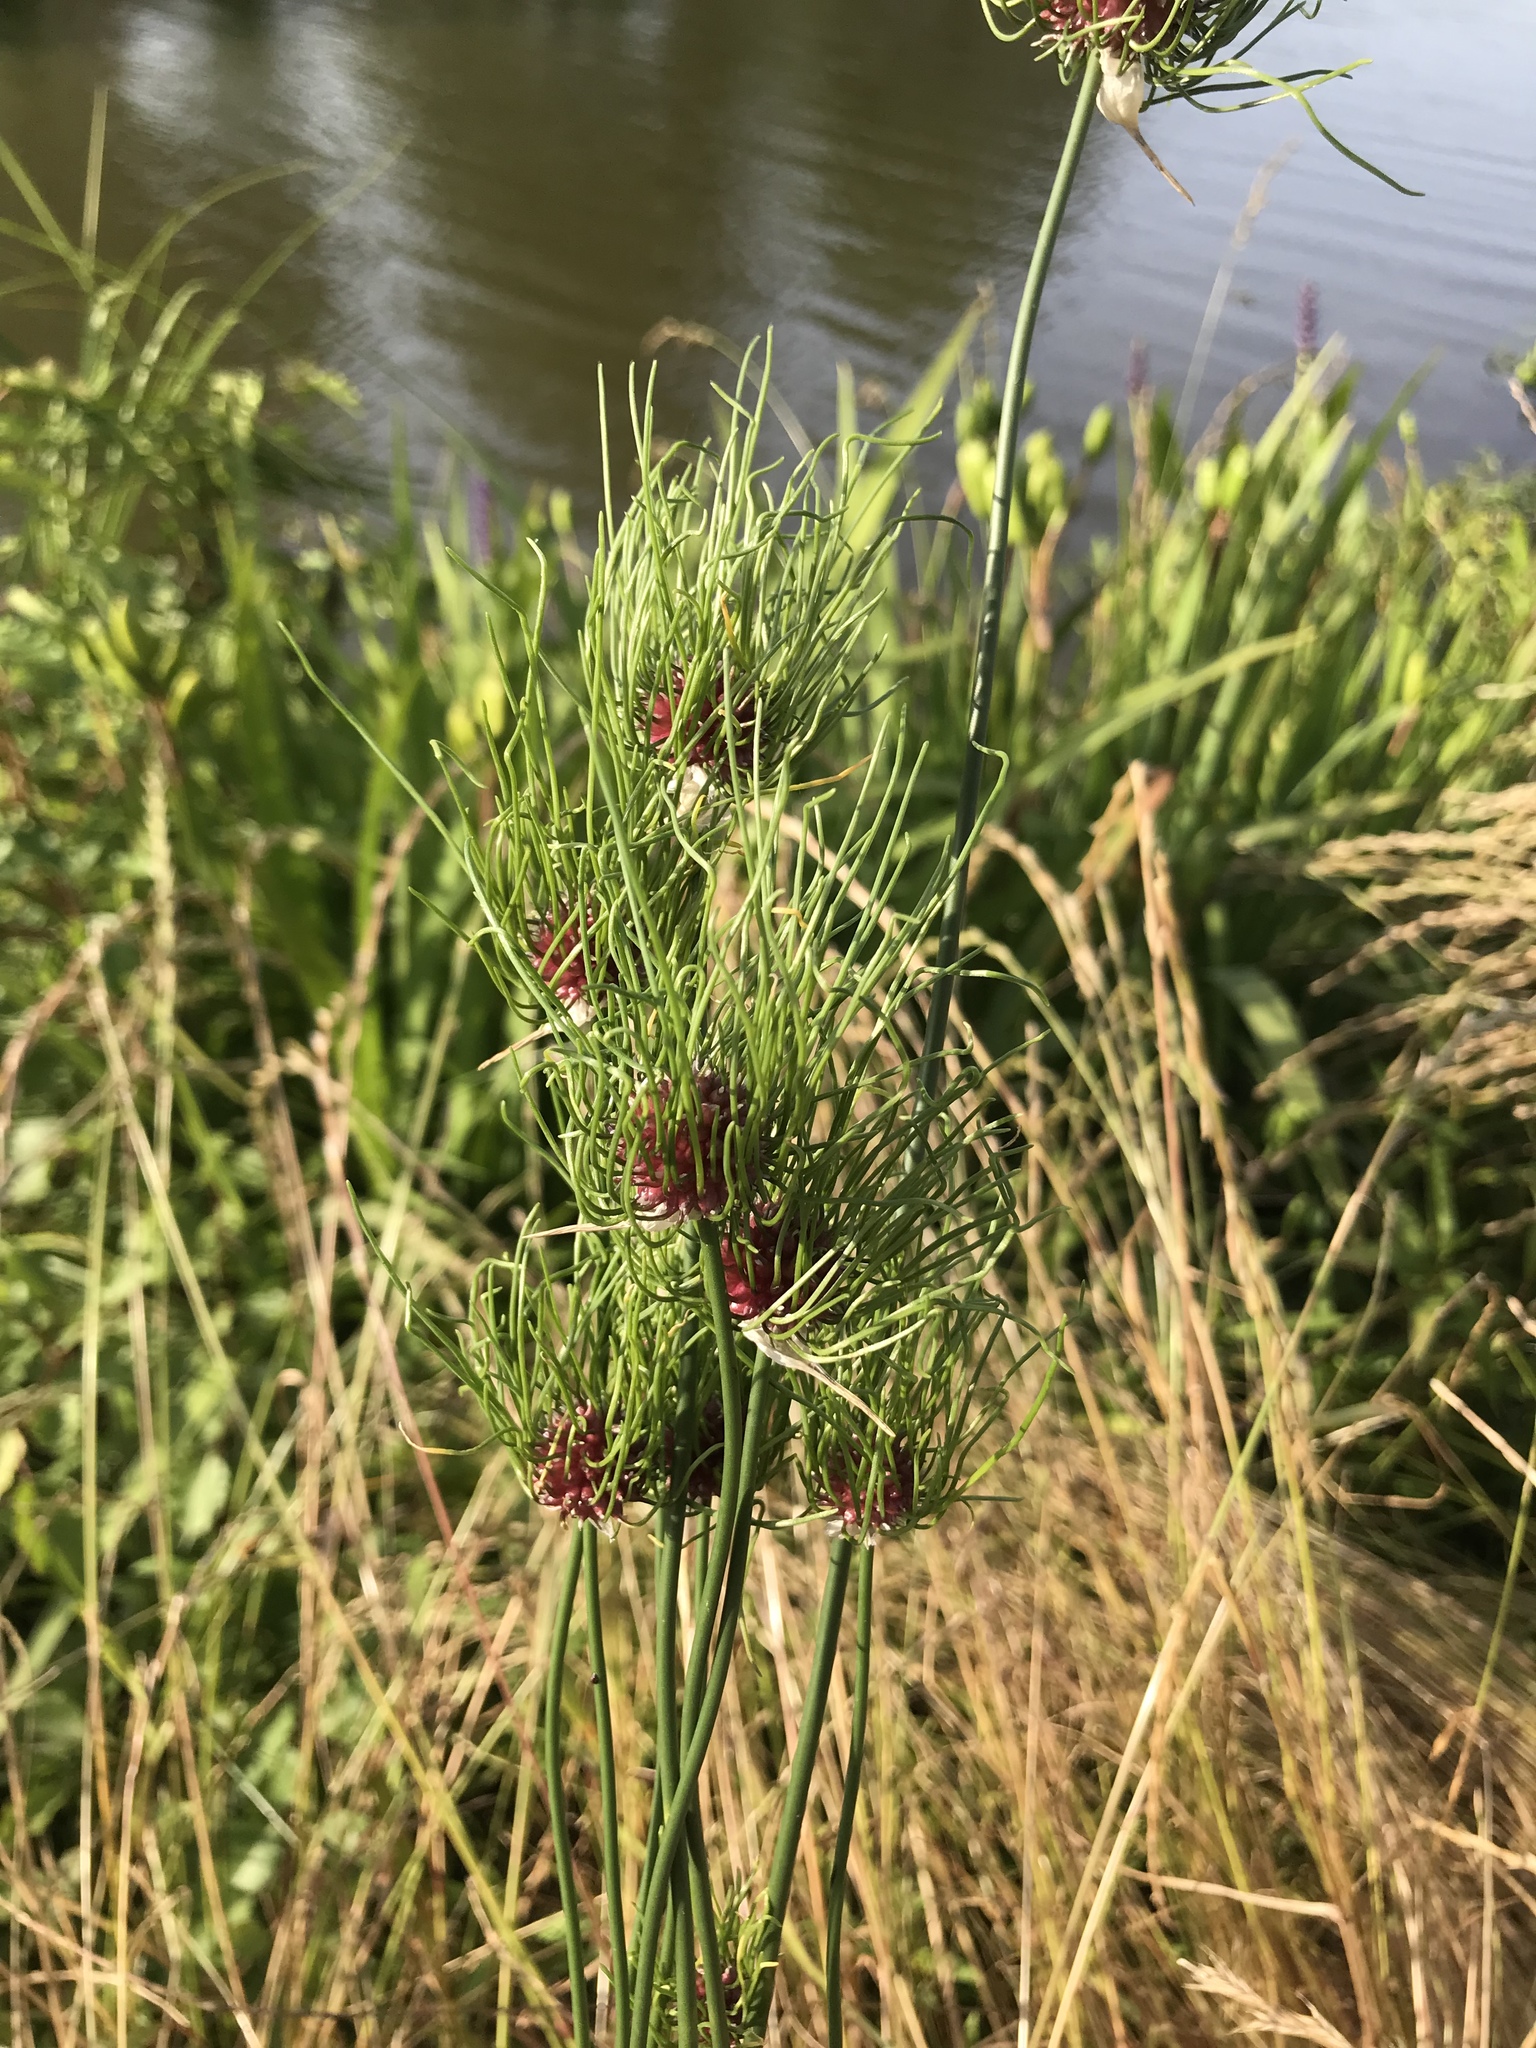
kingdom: Plantae
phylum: Tracheophyta
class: Liliopsida
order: Asparagales
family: Amaryllidaceae
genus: Allium
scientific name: Allium vineale
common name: Crow garlic
